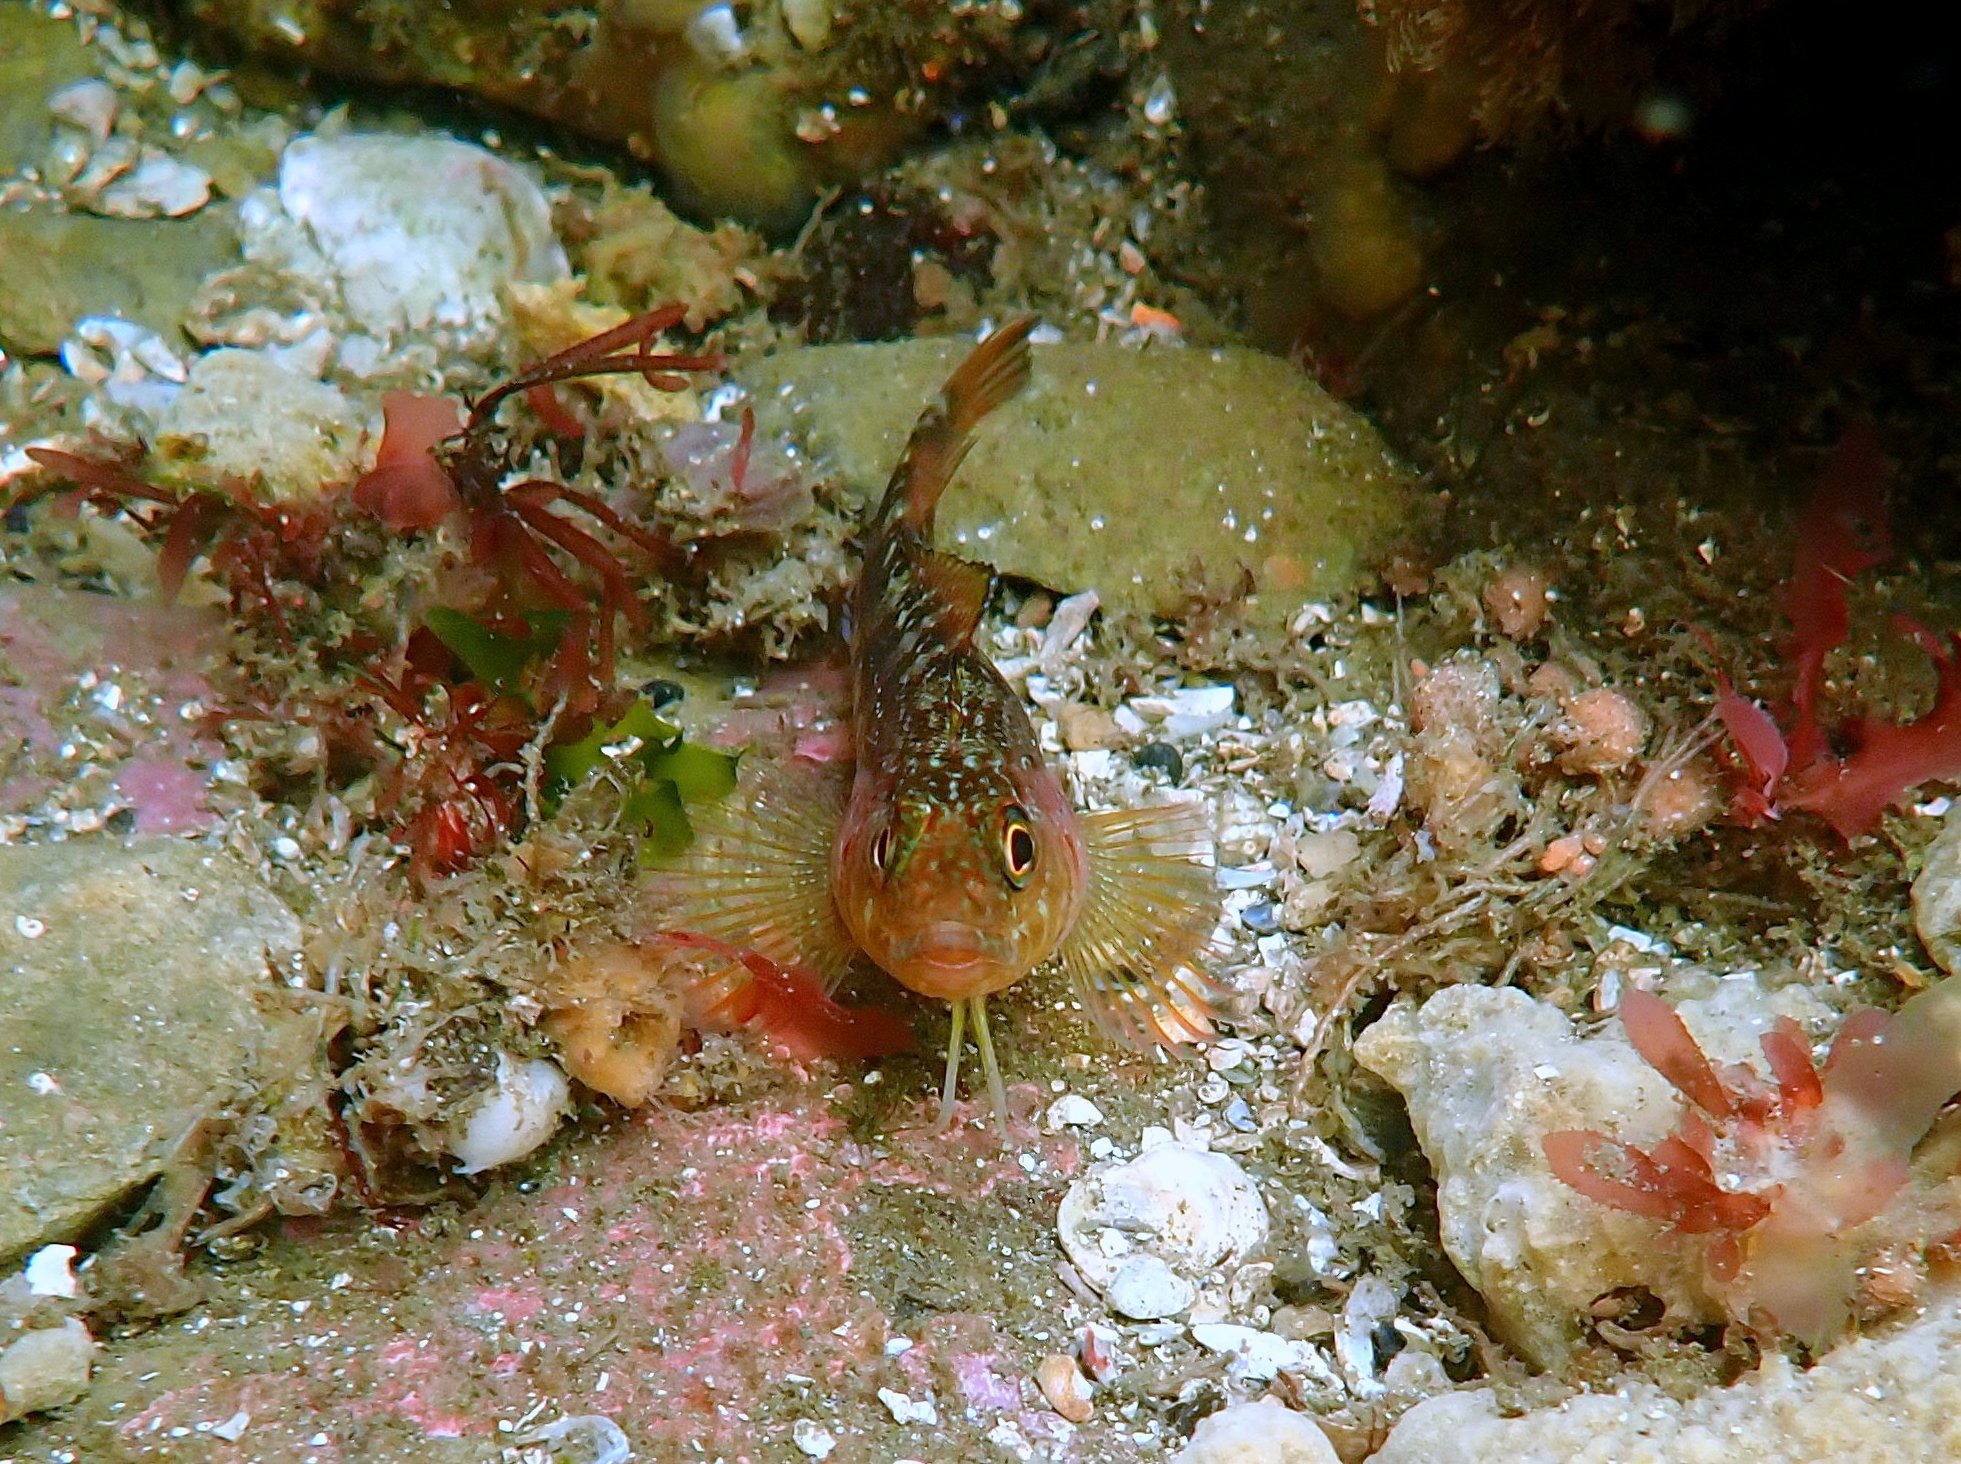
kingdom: Animalia
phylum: Chordata
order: Perciformes
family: Tripterygiidae
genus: Forsterygion
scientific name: Forsterygion varium
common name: Variable triplefin
